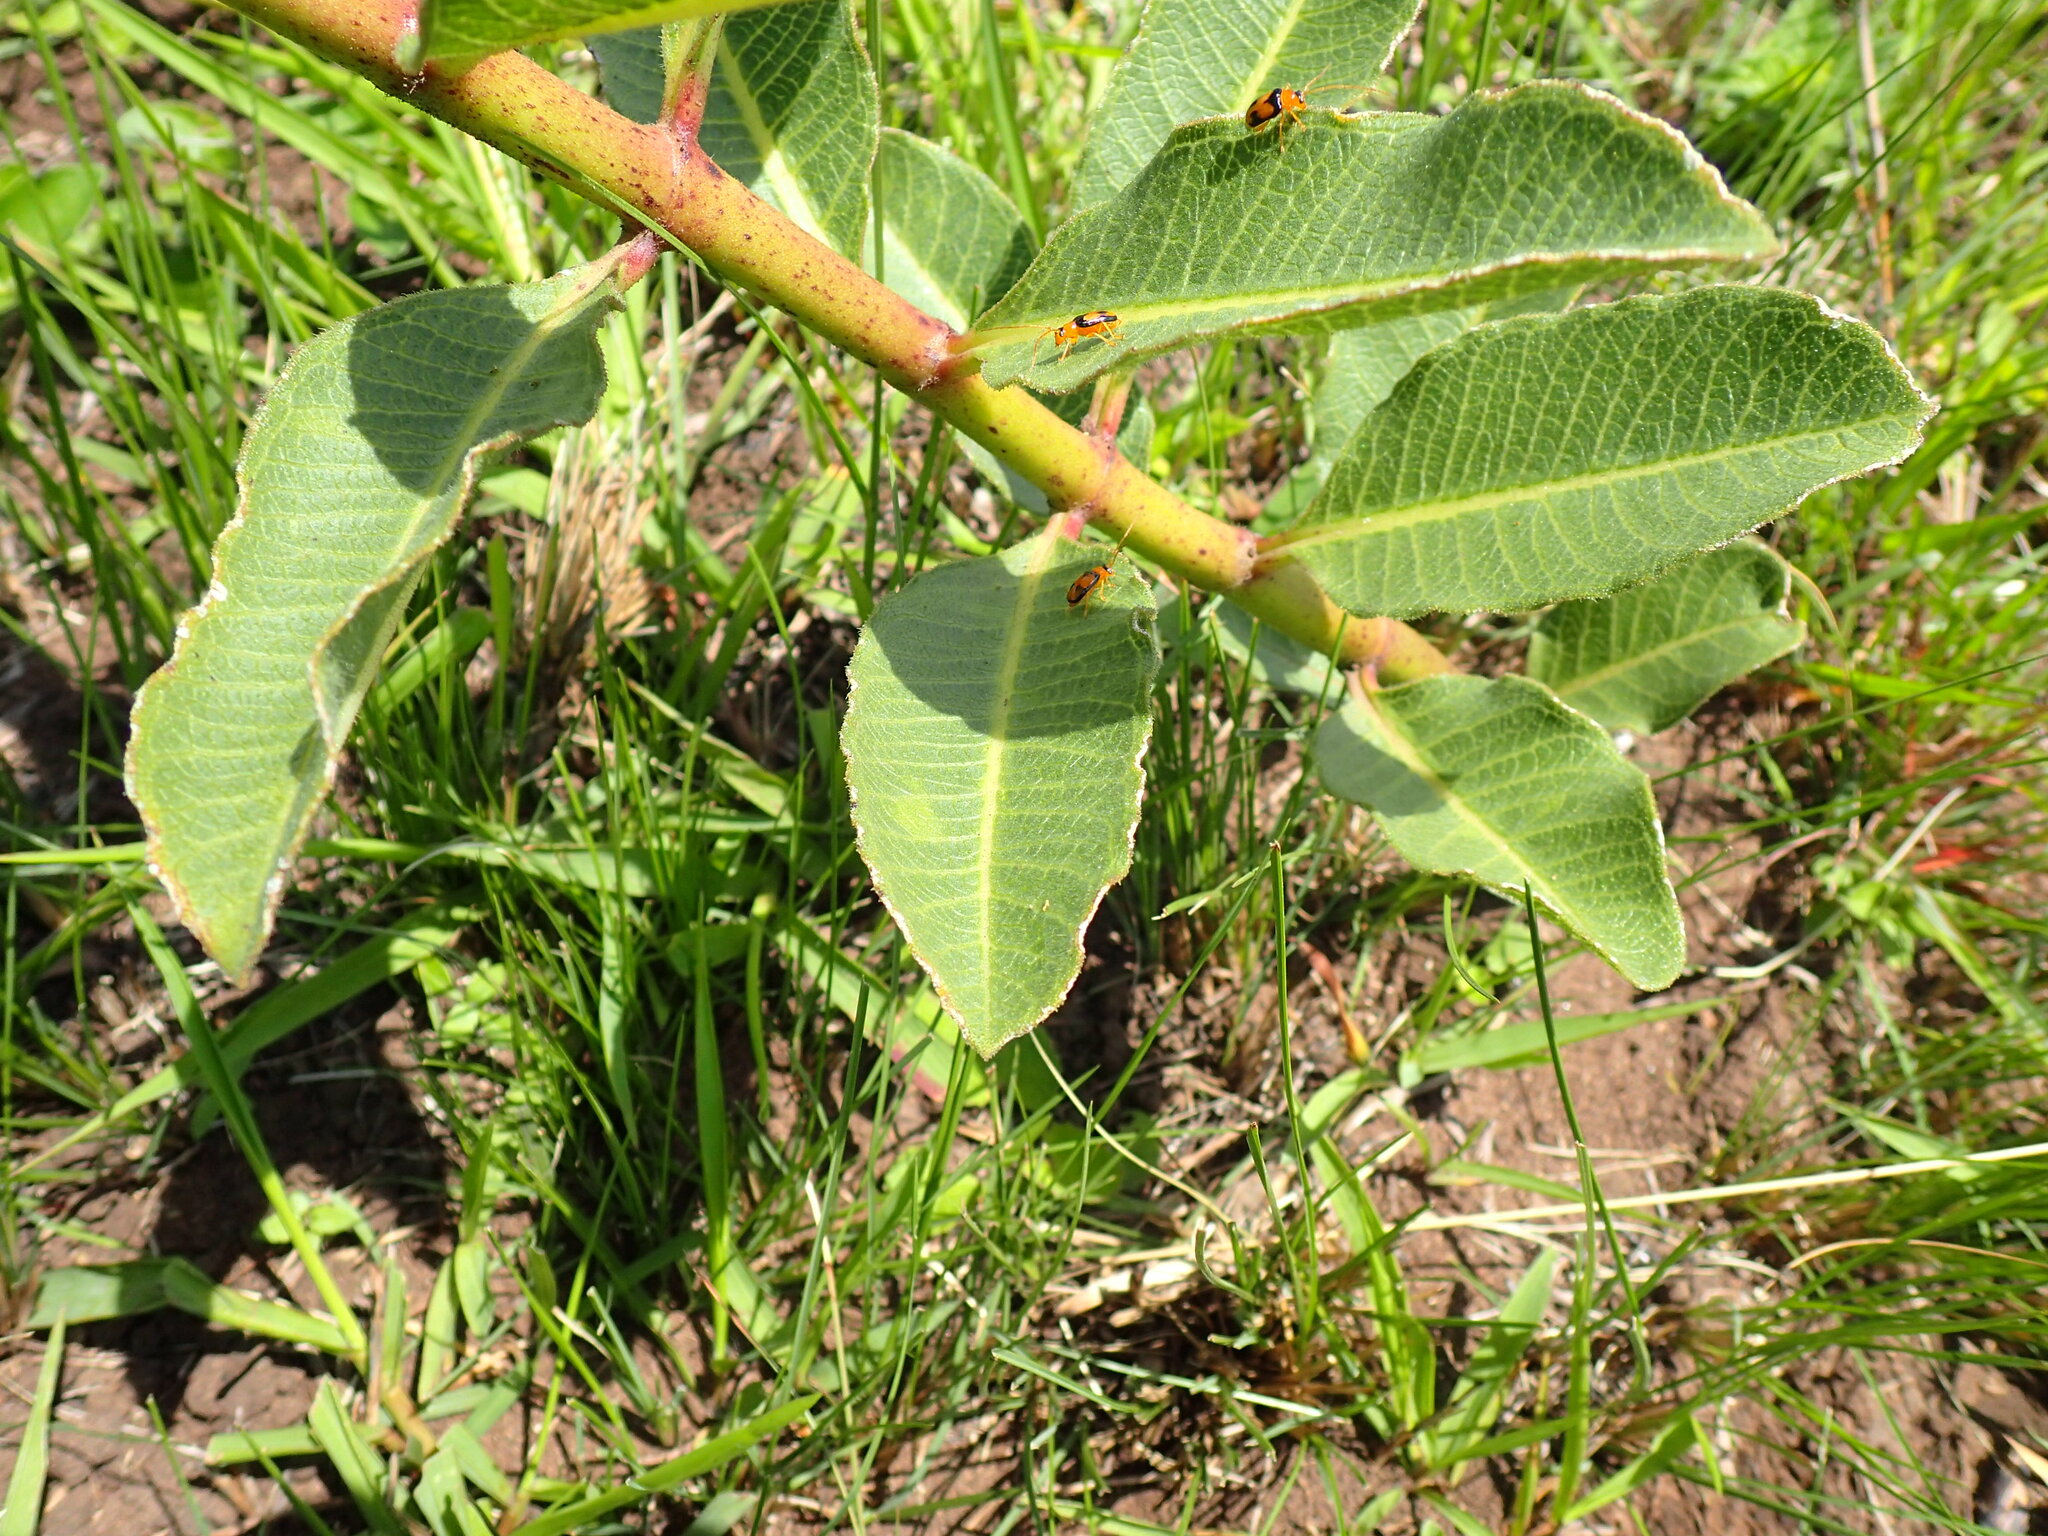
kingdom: Plantae
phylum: Tracheophyta
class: Magnoliopsida
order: Gentianales
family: Apocynaceae
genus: Pachycarpus
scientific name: Pachycarpus asperifolius
